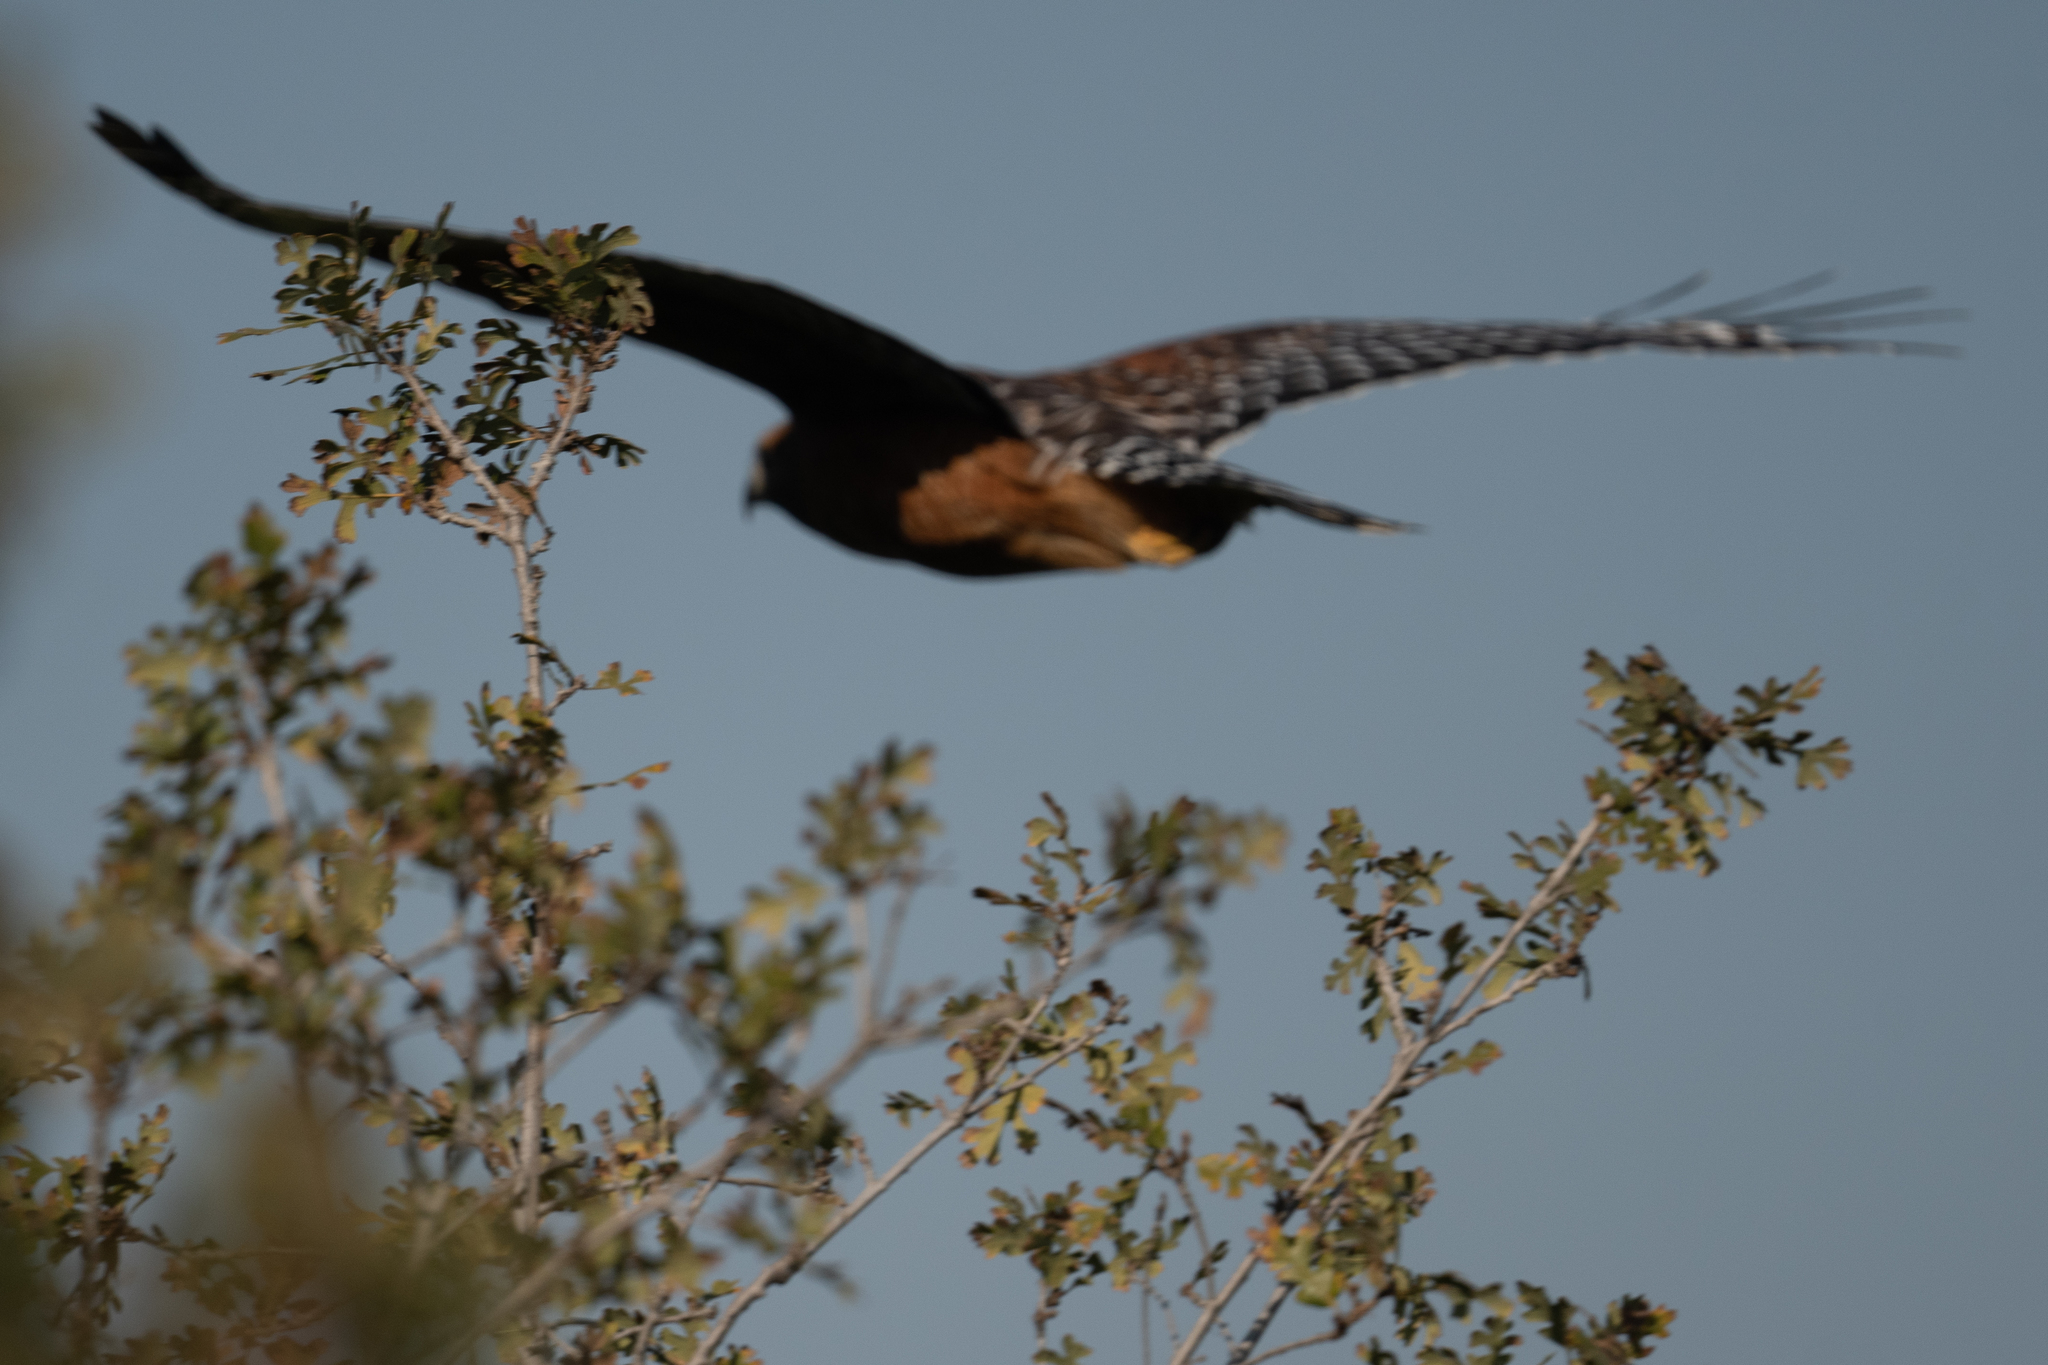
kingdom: Animalia
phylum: Chordata
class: Aves
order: Accipitriformes
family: Accipitridae
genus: Buteo
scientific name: Buteo lineatus
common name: Red-shouldered hawk
